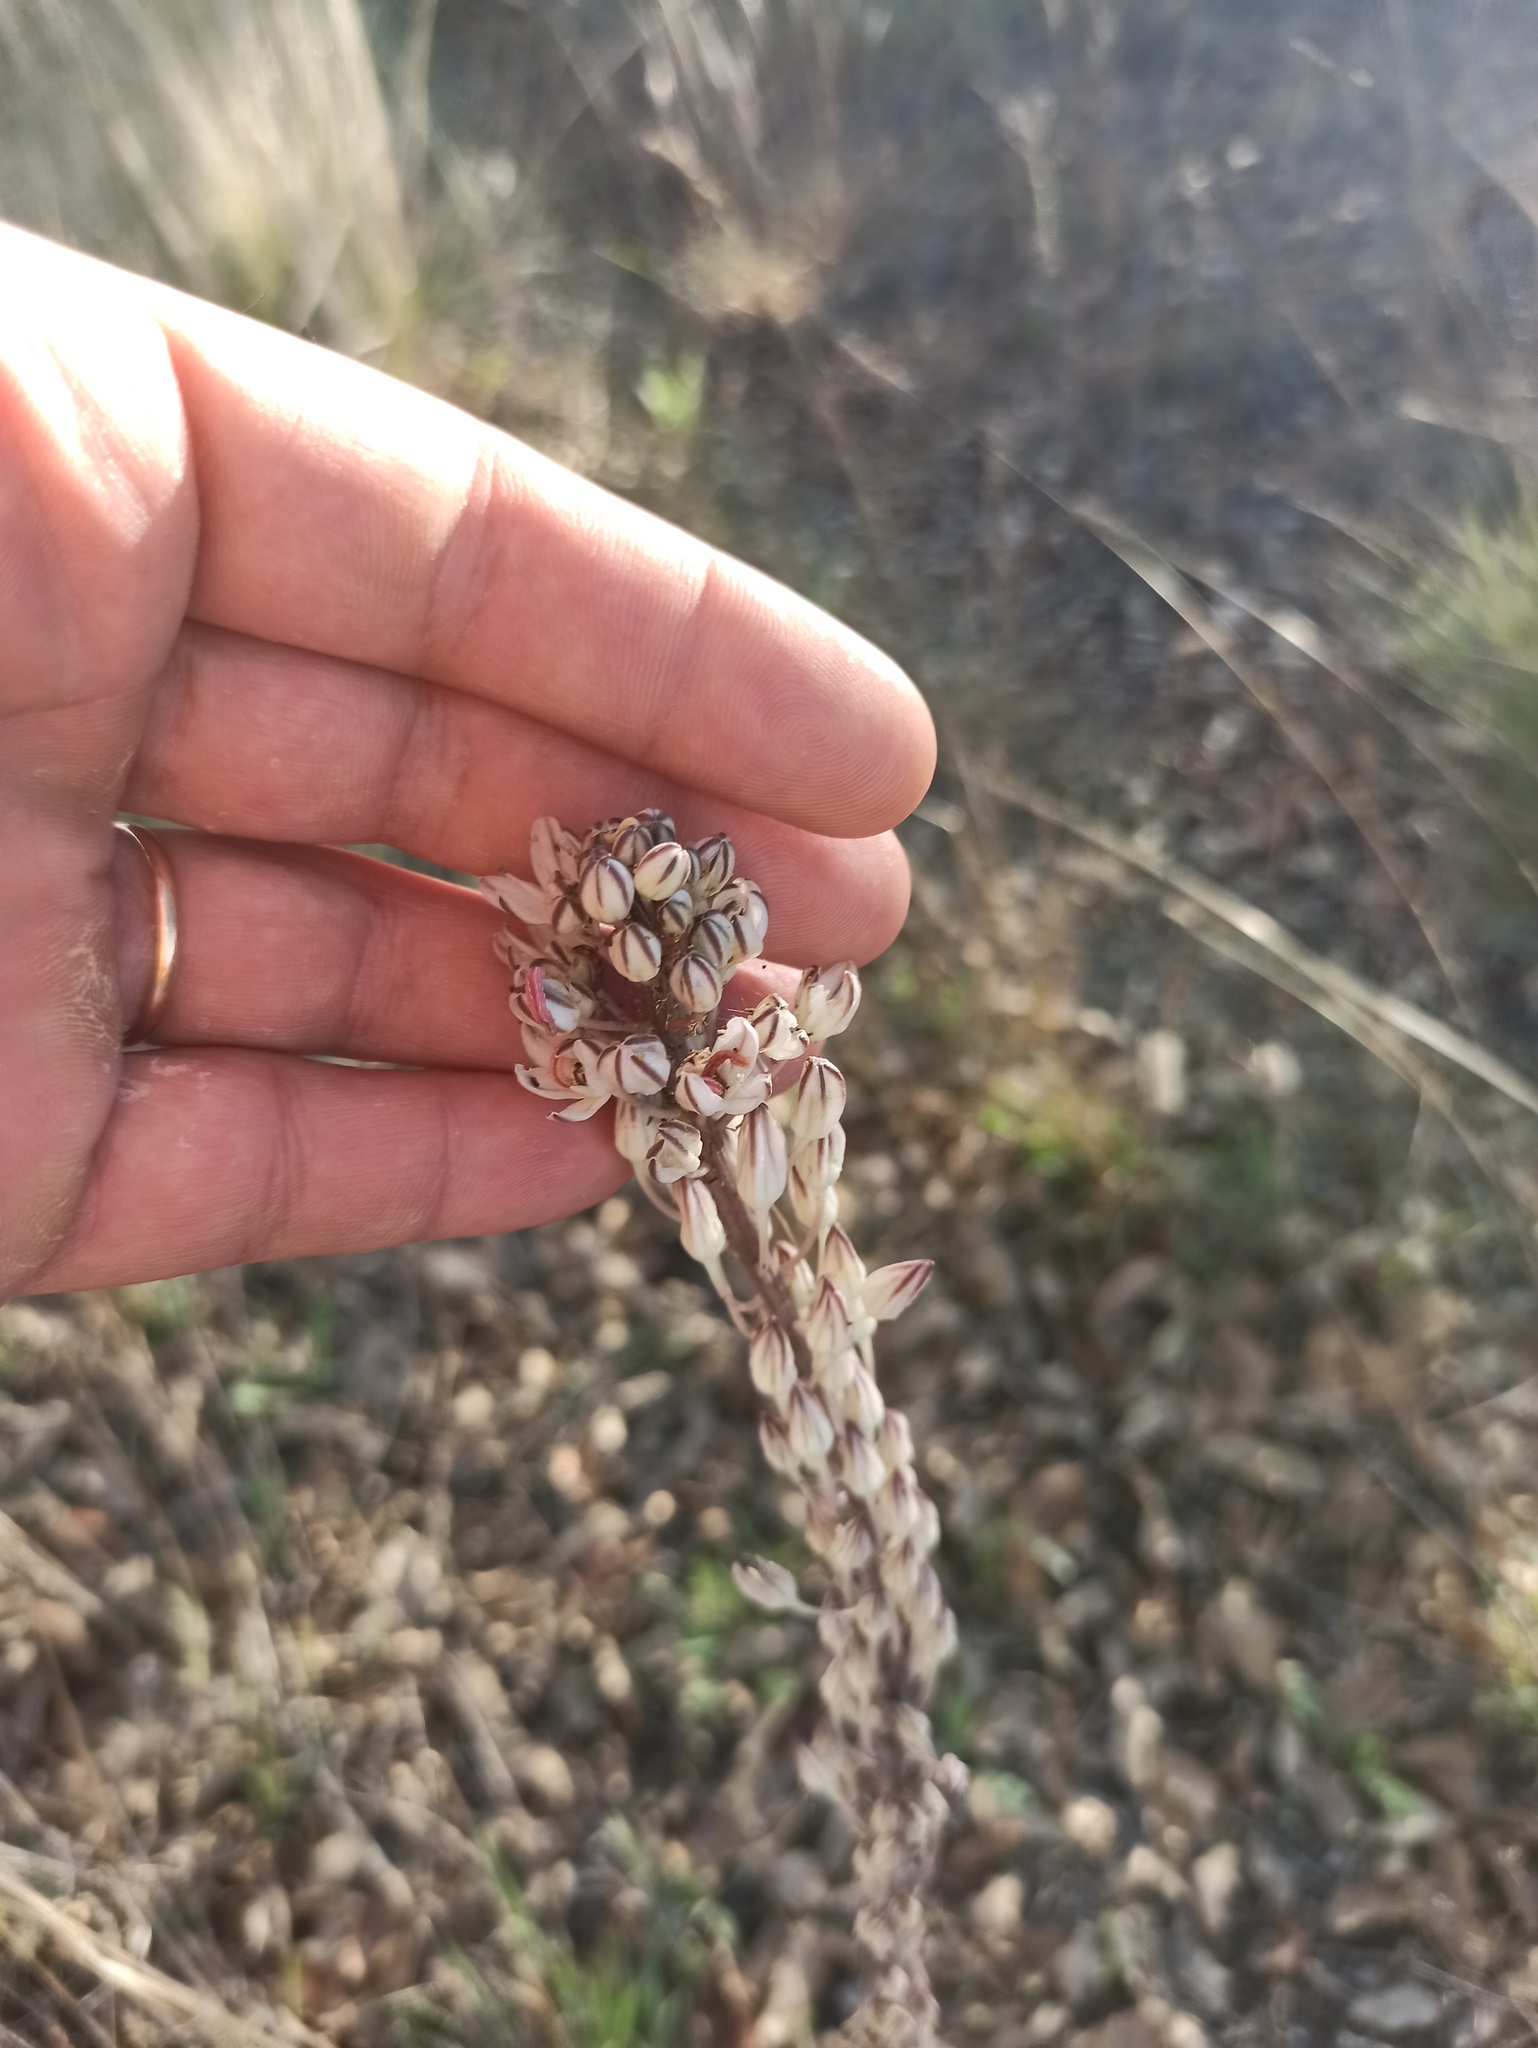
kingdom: Plantae
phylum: Tracheophyta
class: Liliopsida
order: Asparagales
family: Asparagaceae
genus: Drimia
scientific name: Drimia maritima
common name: Maritime squill
